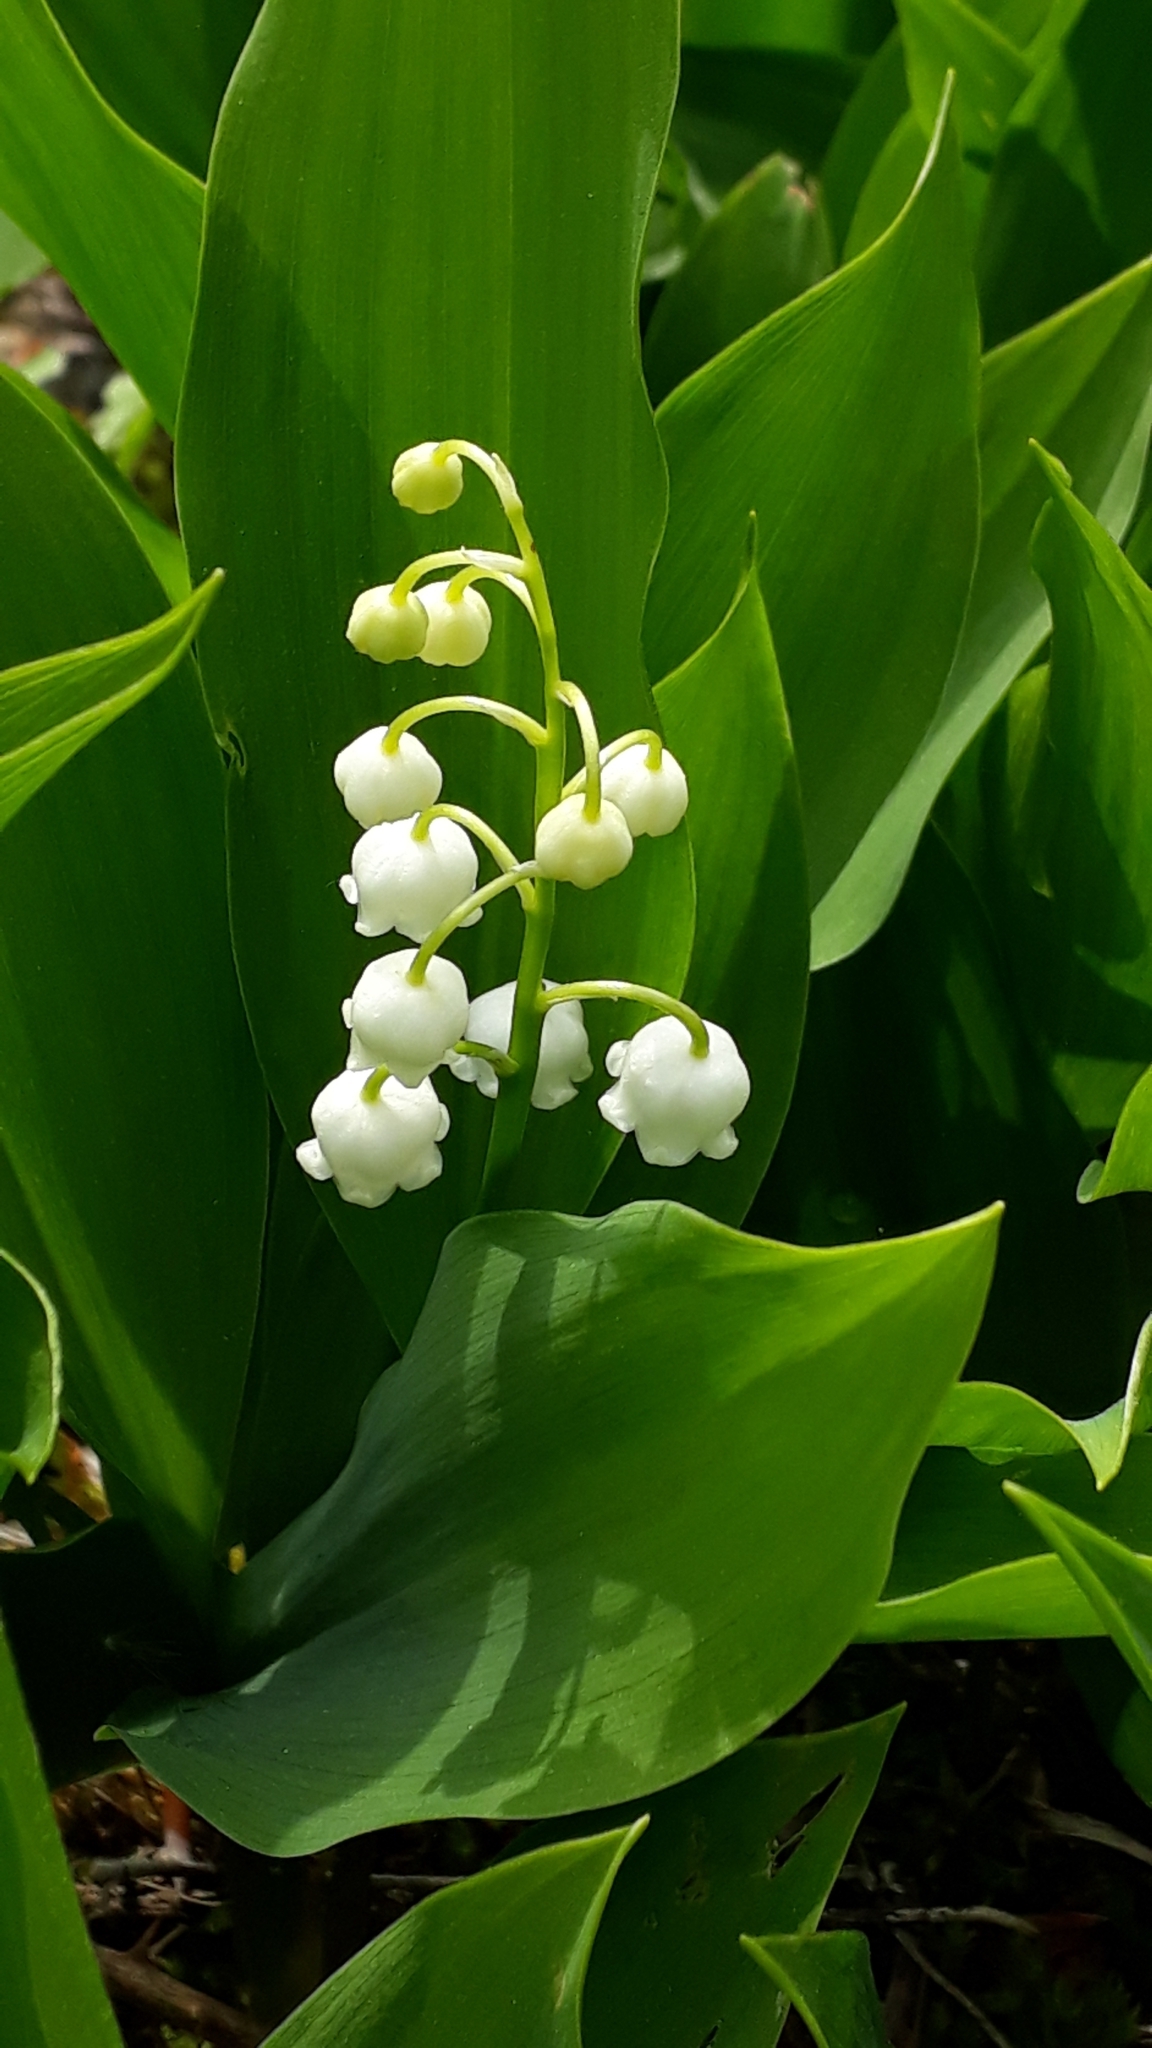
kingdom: Plantae
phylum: Tracheophyta
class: Liliopsida
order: Asparagales
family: Asparagaceae
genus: Convallaria
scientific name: Convallaria majalis
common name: Lily-of-the-valley
